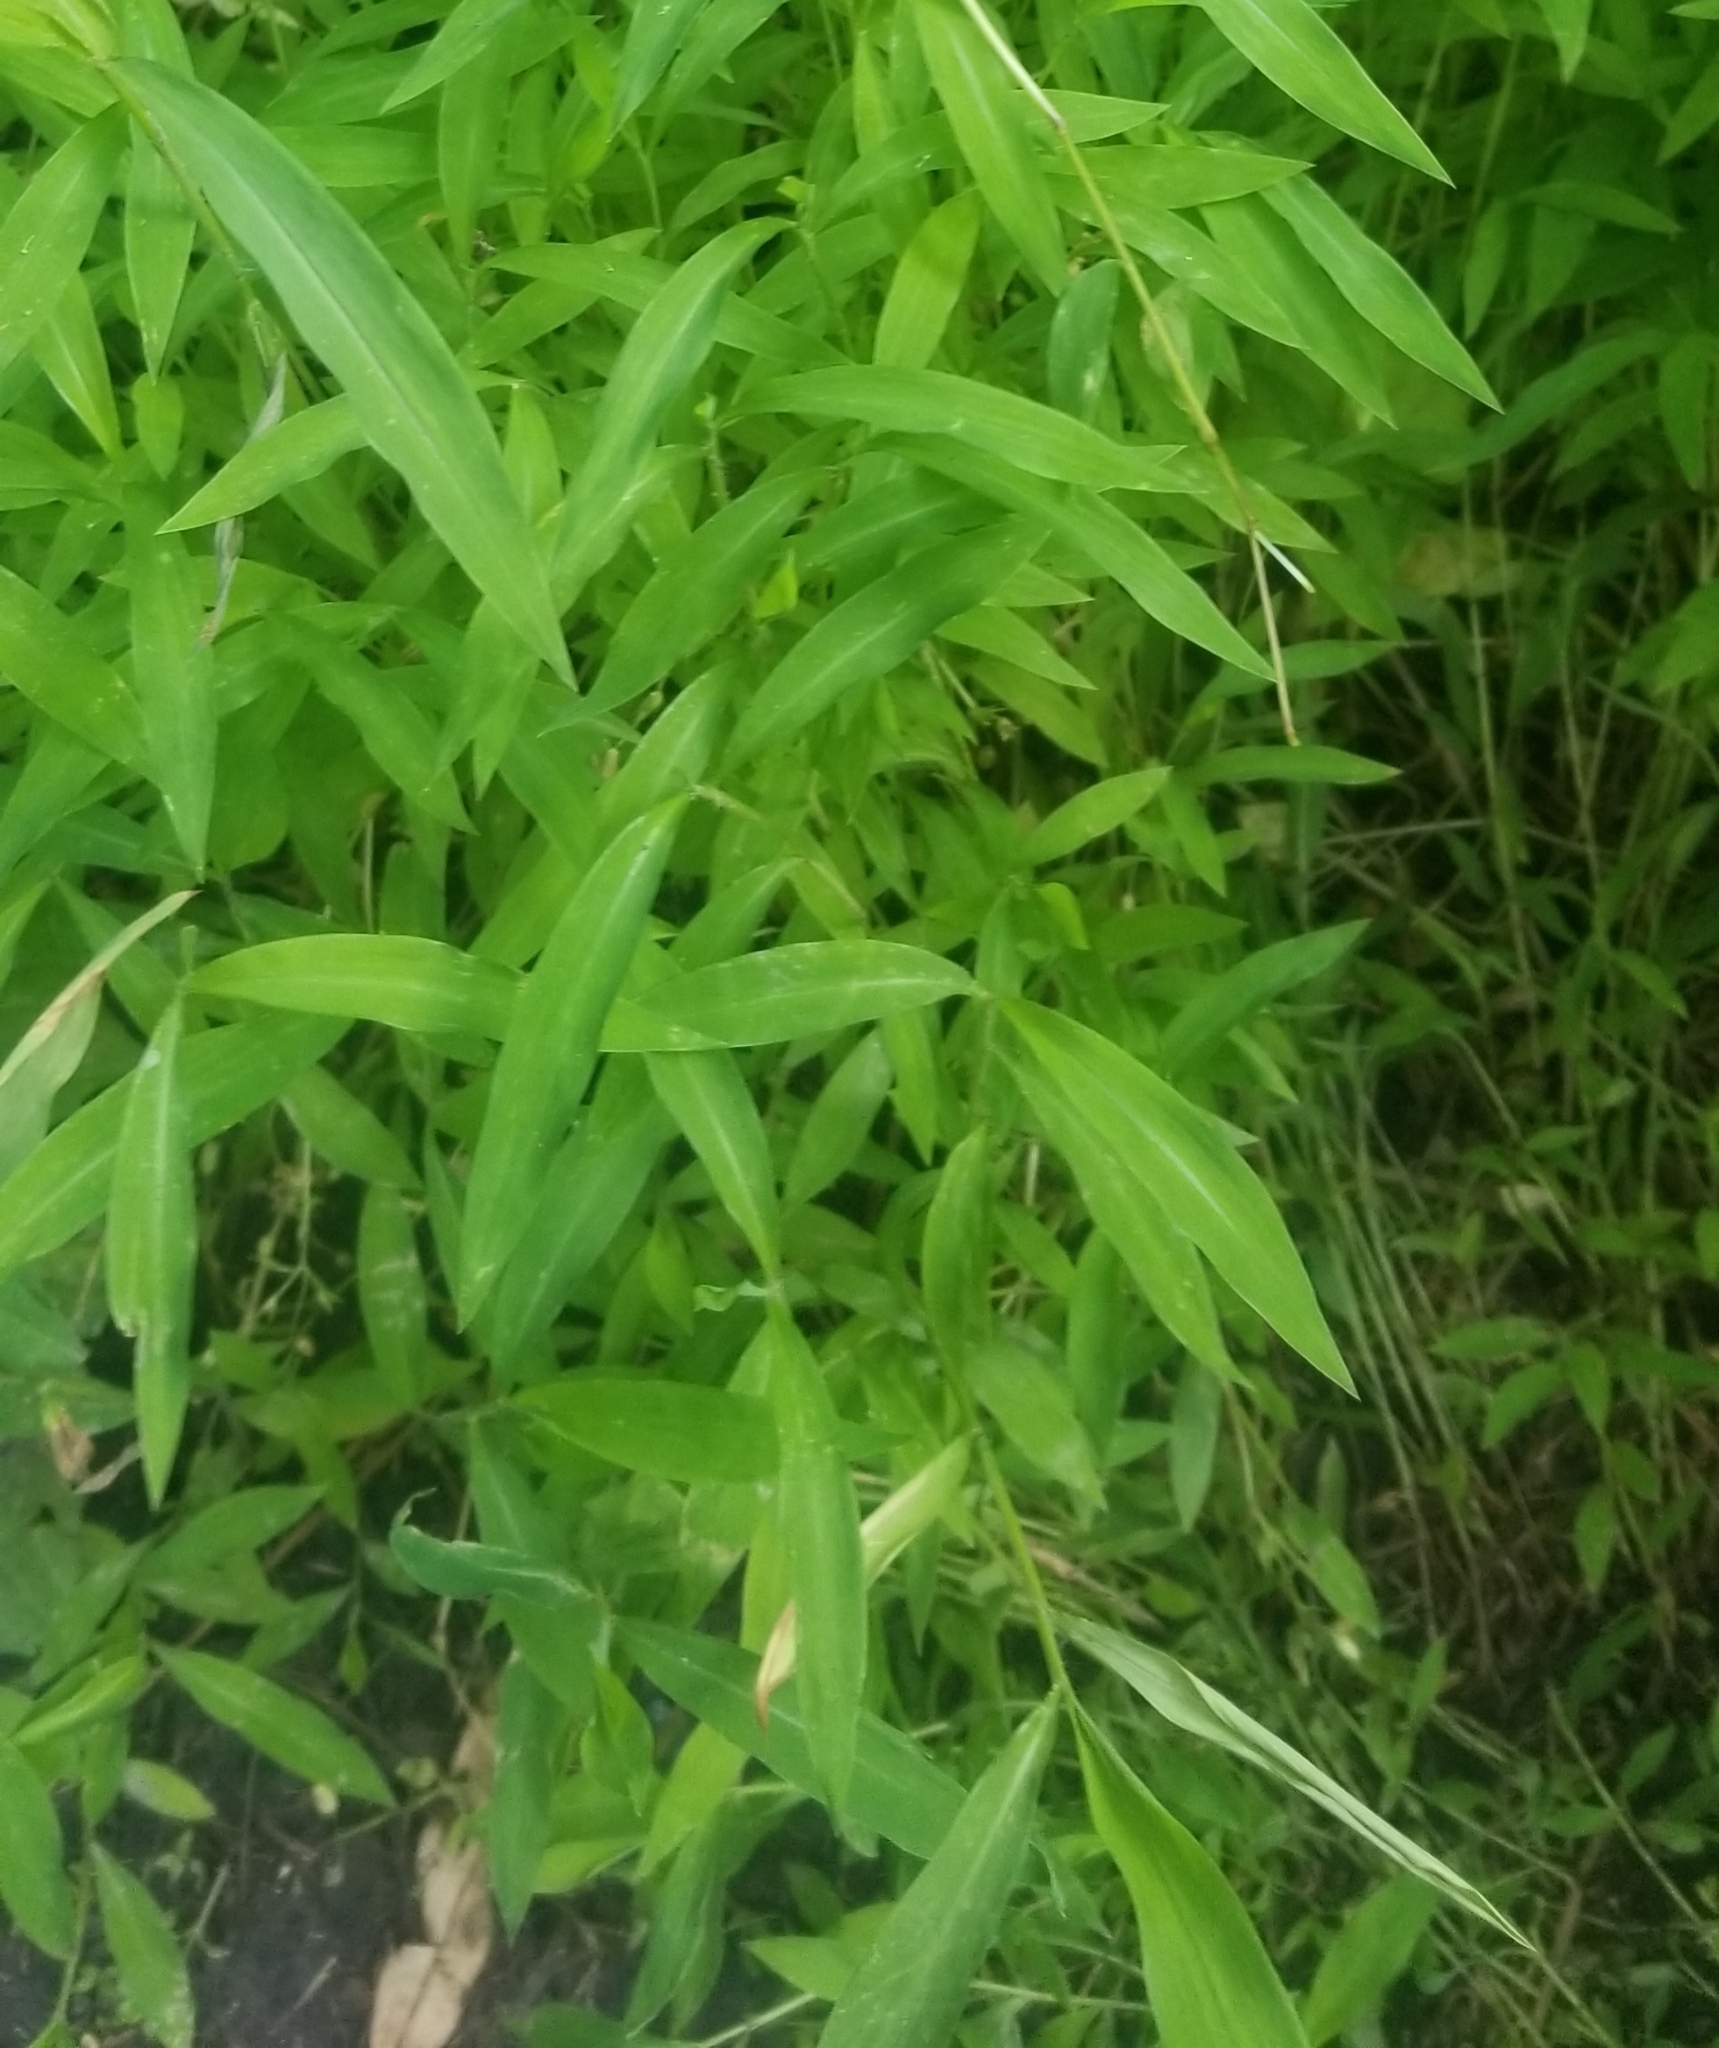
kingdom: Plantae
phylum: Tracheophyta
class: Liliopsida
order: Poales
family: Poaceae
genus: Microstegium
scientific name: Microstegium vimineum
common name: Japanese stiltgrass
